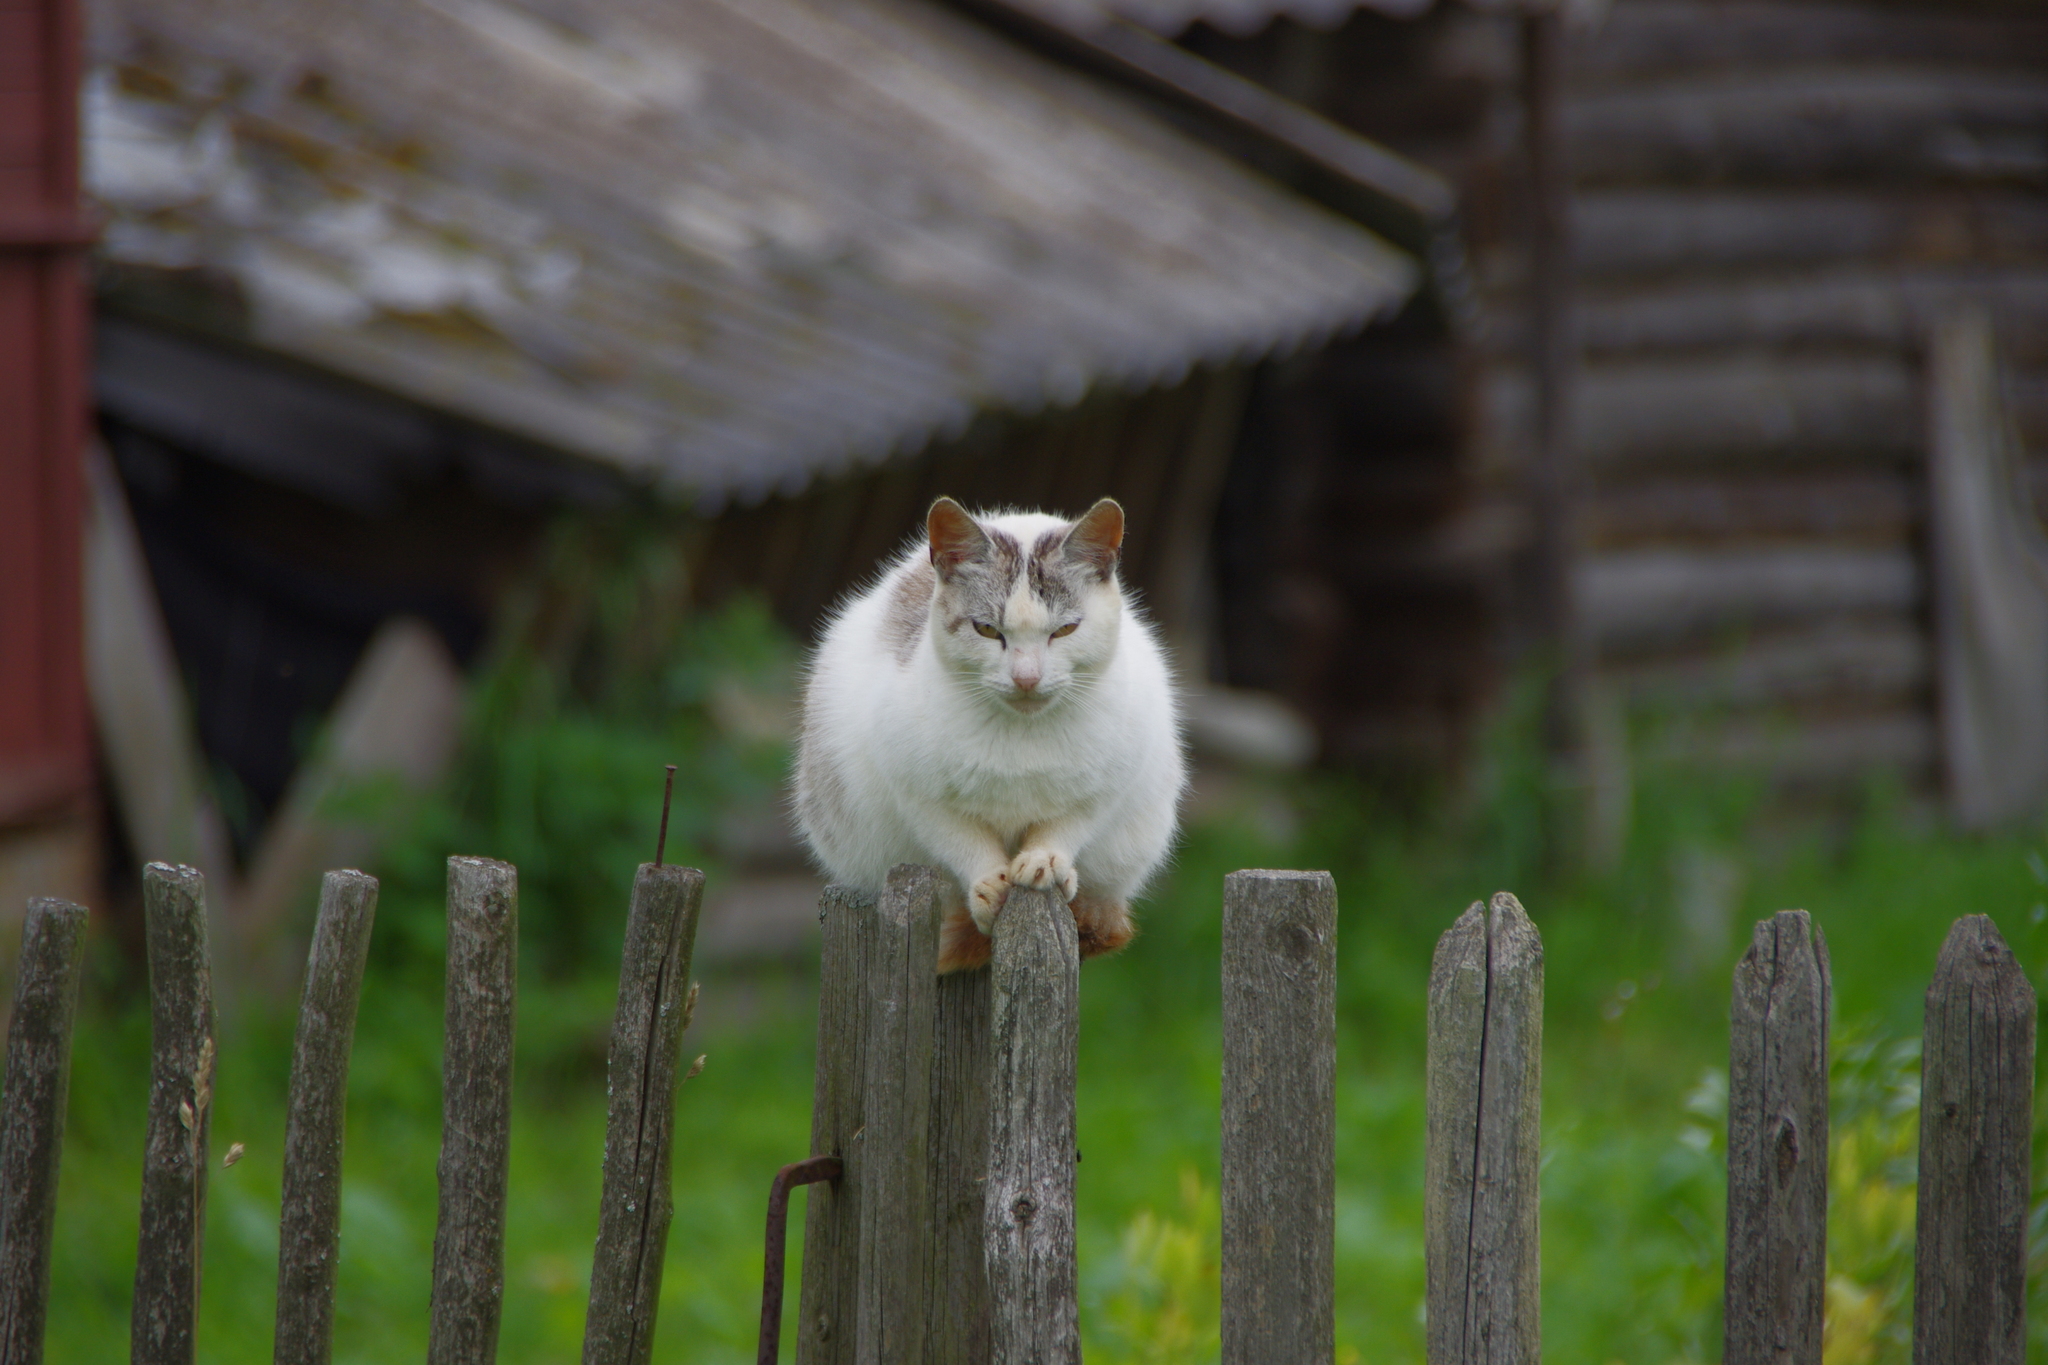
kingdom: Animalia
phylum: Chordata
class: Mammalia
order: Carnivora
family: Felidae
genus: Felis
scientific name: Felis catus
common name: Domestic cat
